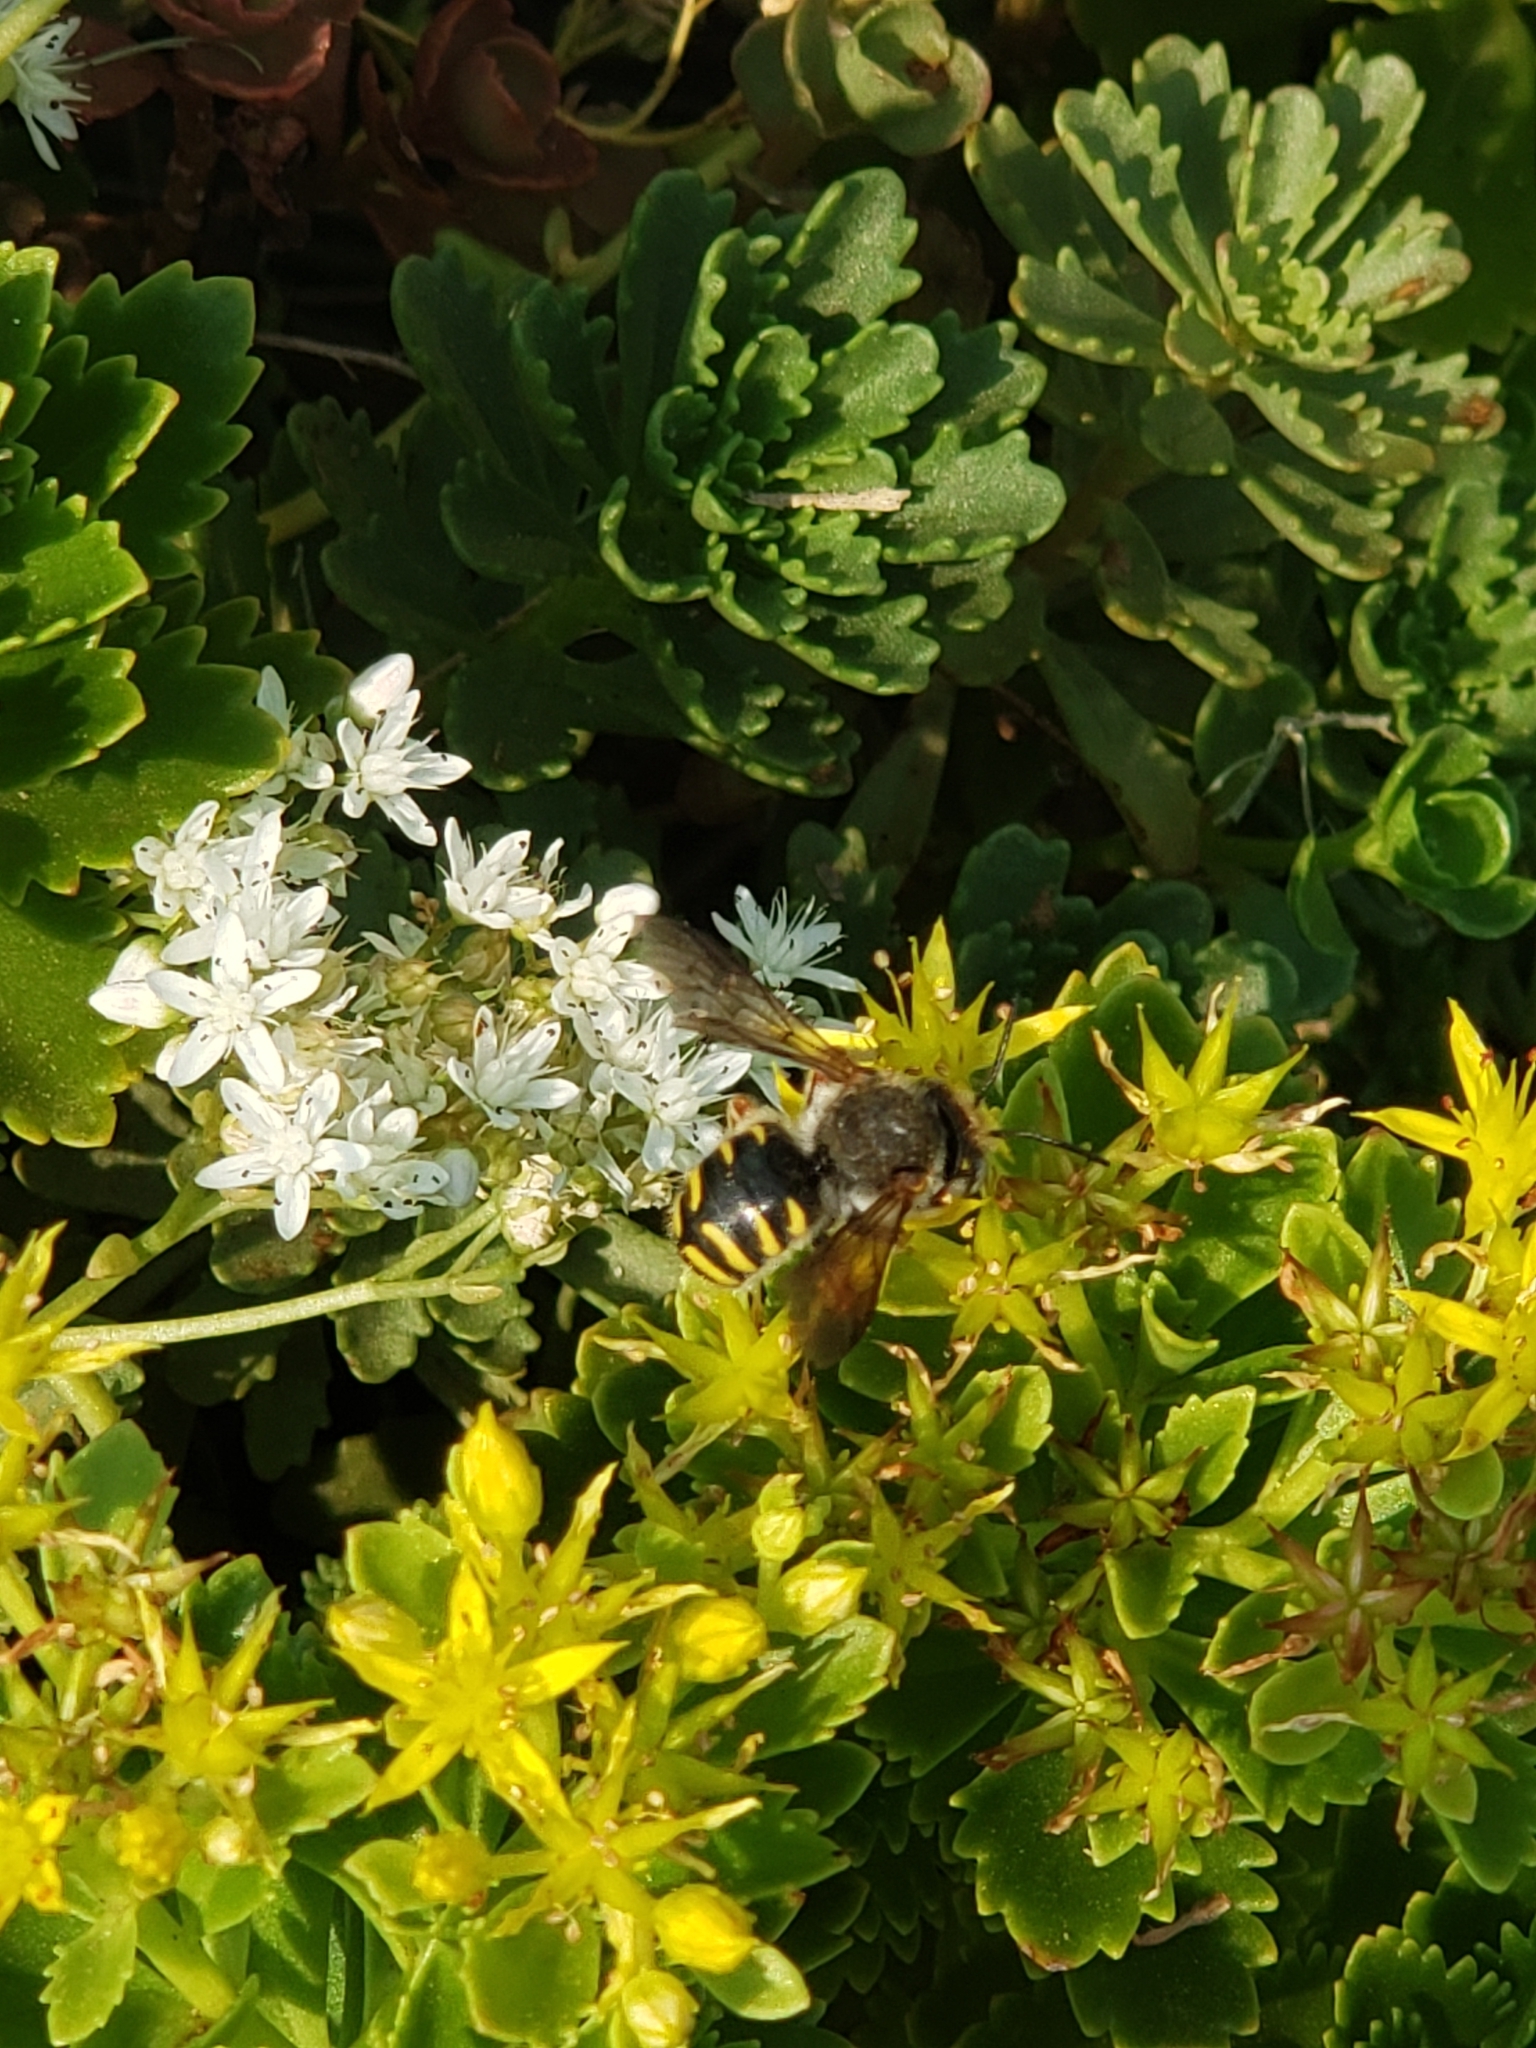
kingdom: Animalia
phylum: Arthropoda
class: Insecta
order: Hymenoptera
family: Megachilidae
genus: Anthidium
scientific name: Anthidium oblongatum
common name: Oblong wool carder bee
